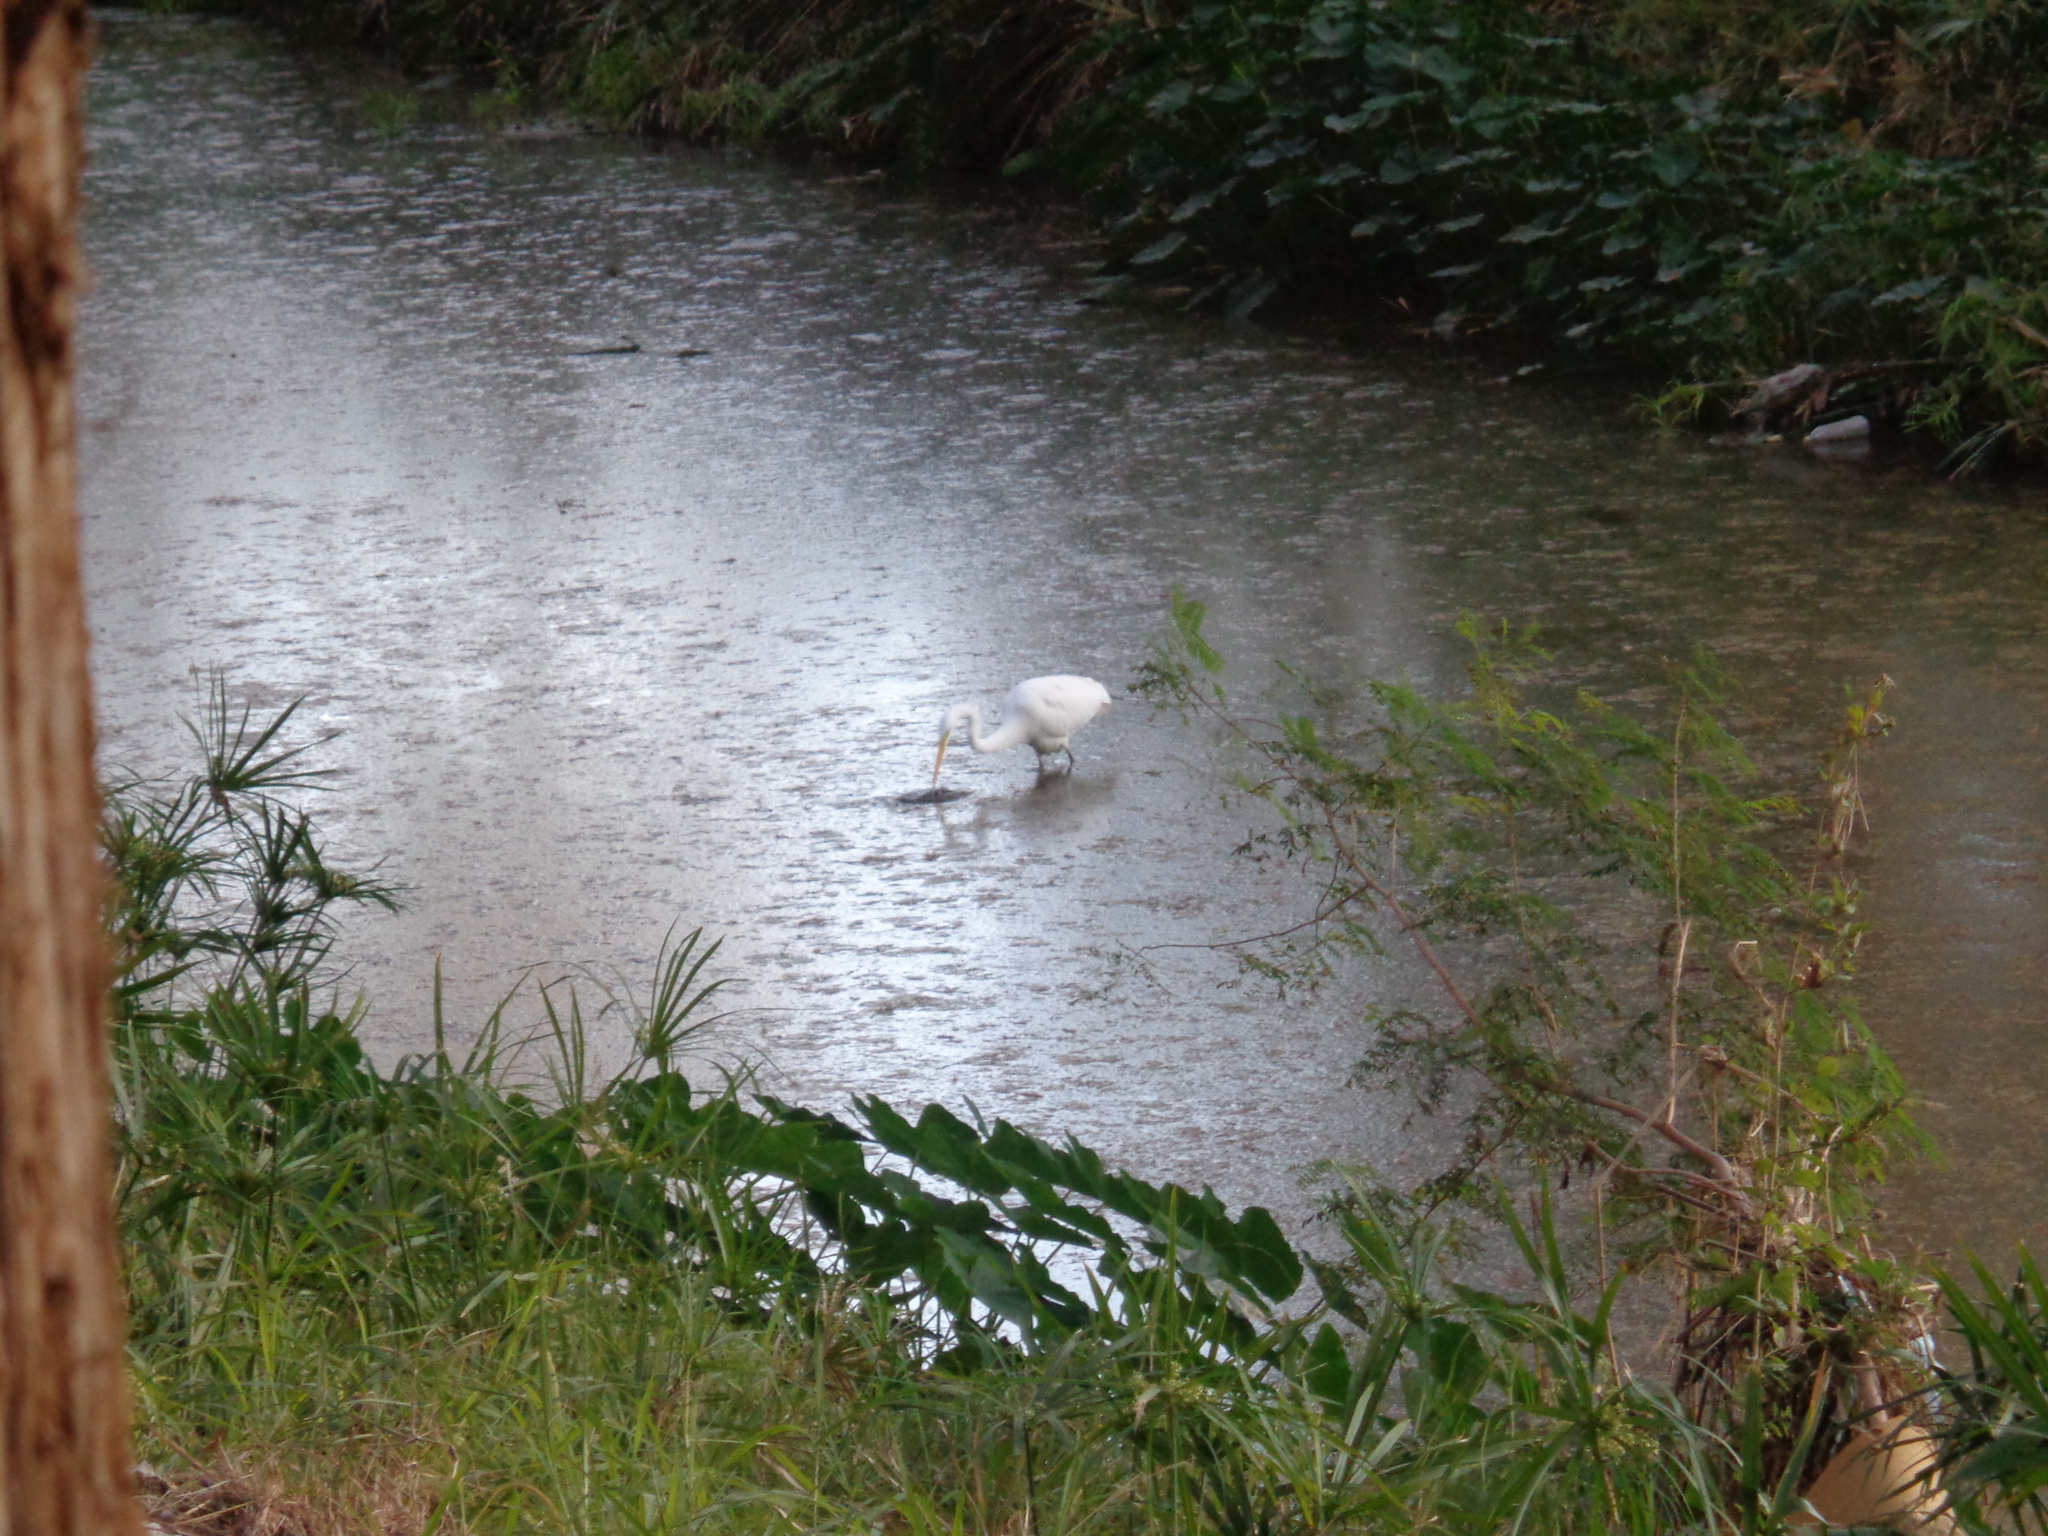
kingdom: Animalia
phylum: Chordata
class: Aves
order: Pelecaniformes
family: Ardeidae
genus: Ardea
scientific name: Ardea alba
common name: Great egret
